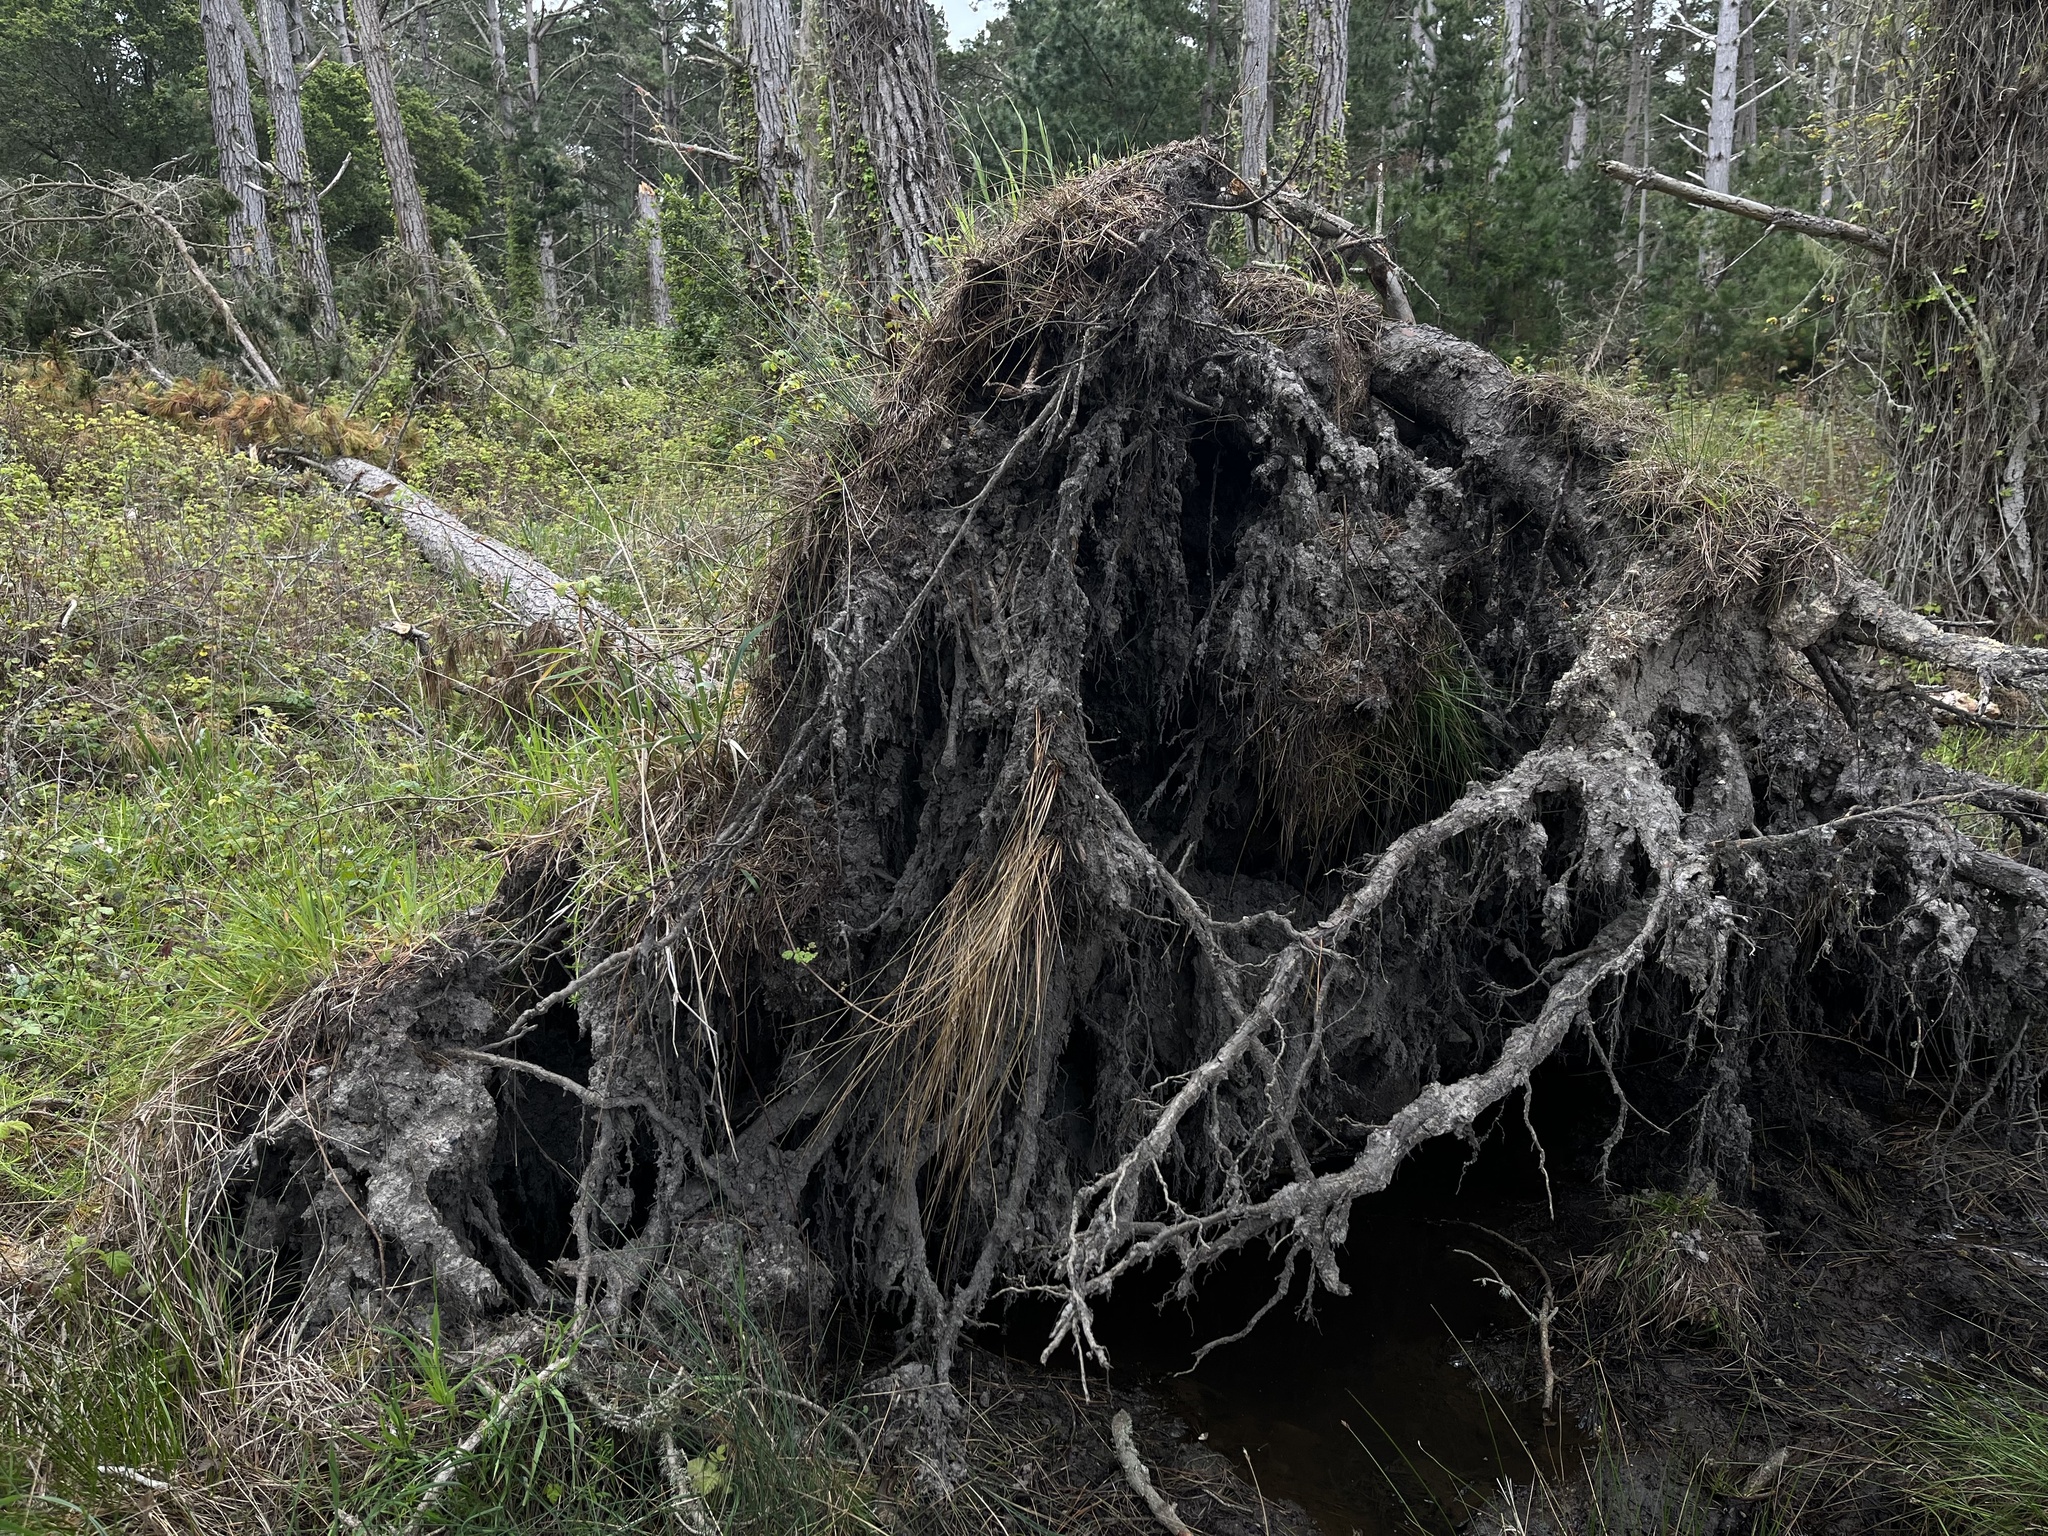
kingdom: Plantae
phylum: Tracheophyta
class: Pinopsida
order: Pinales
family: Pinaceae
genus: Pinus
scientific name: Pinus radiata
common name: Monterey pine
